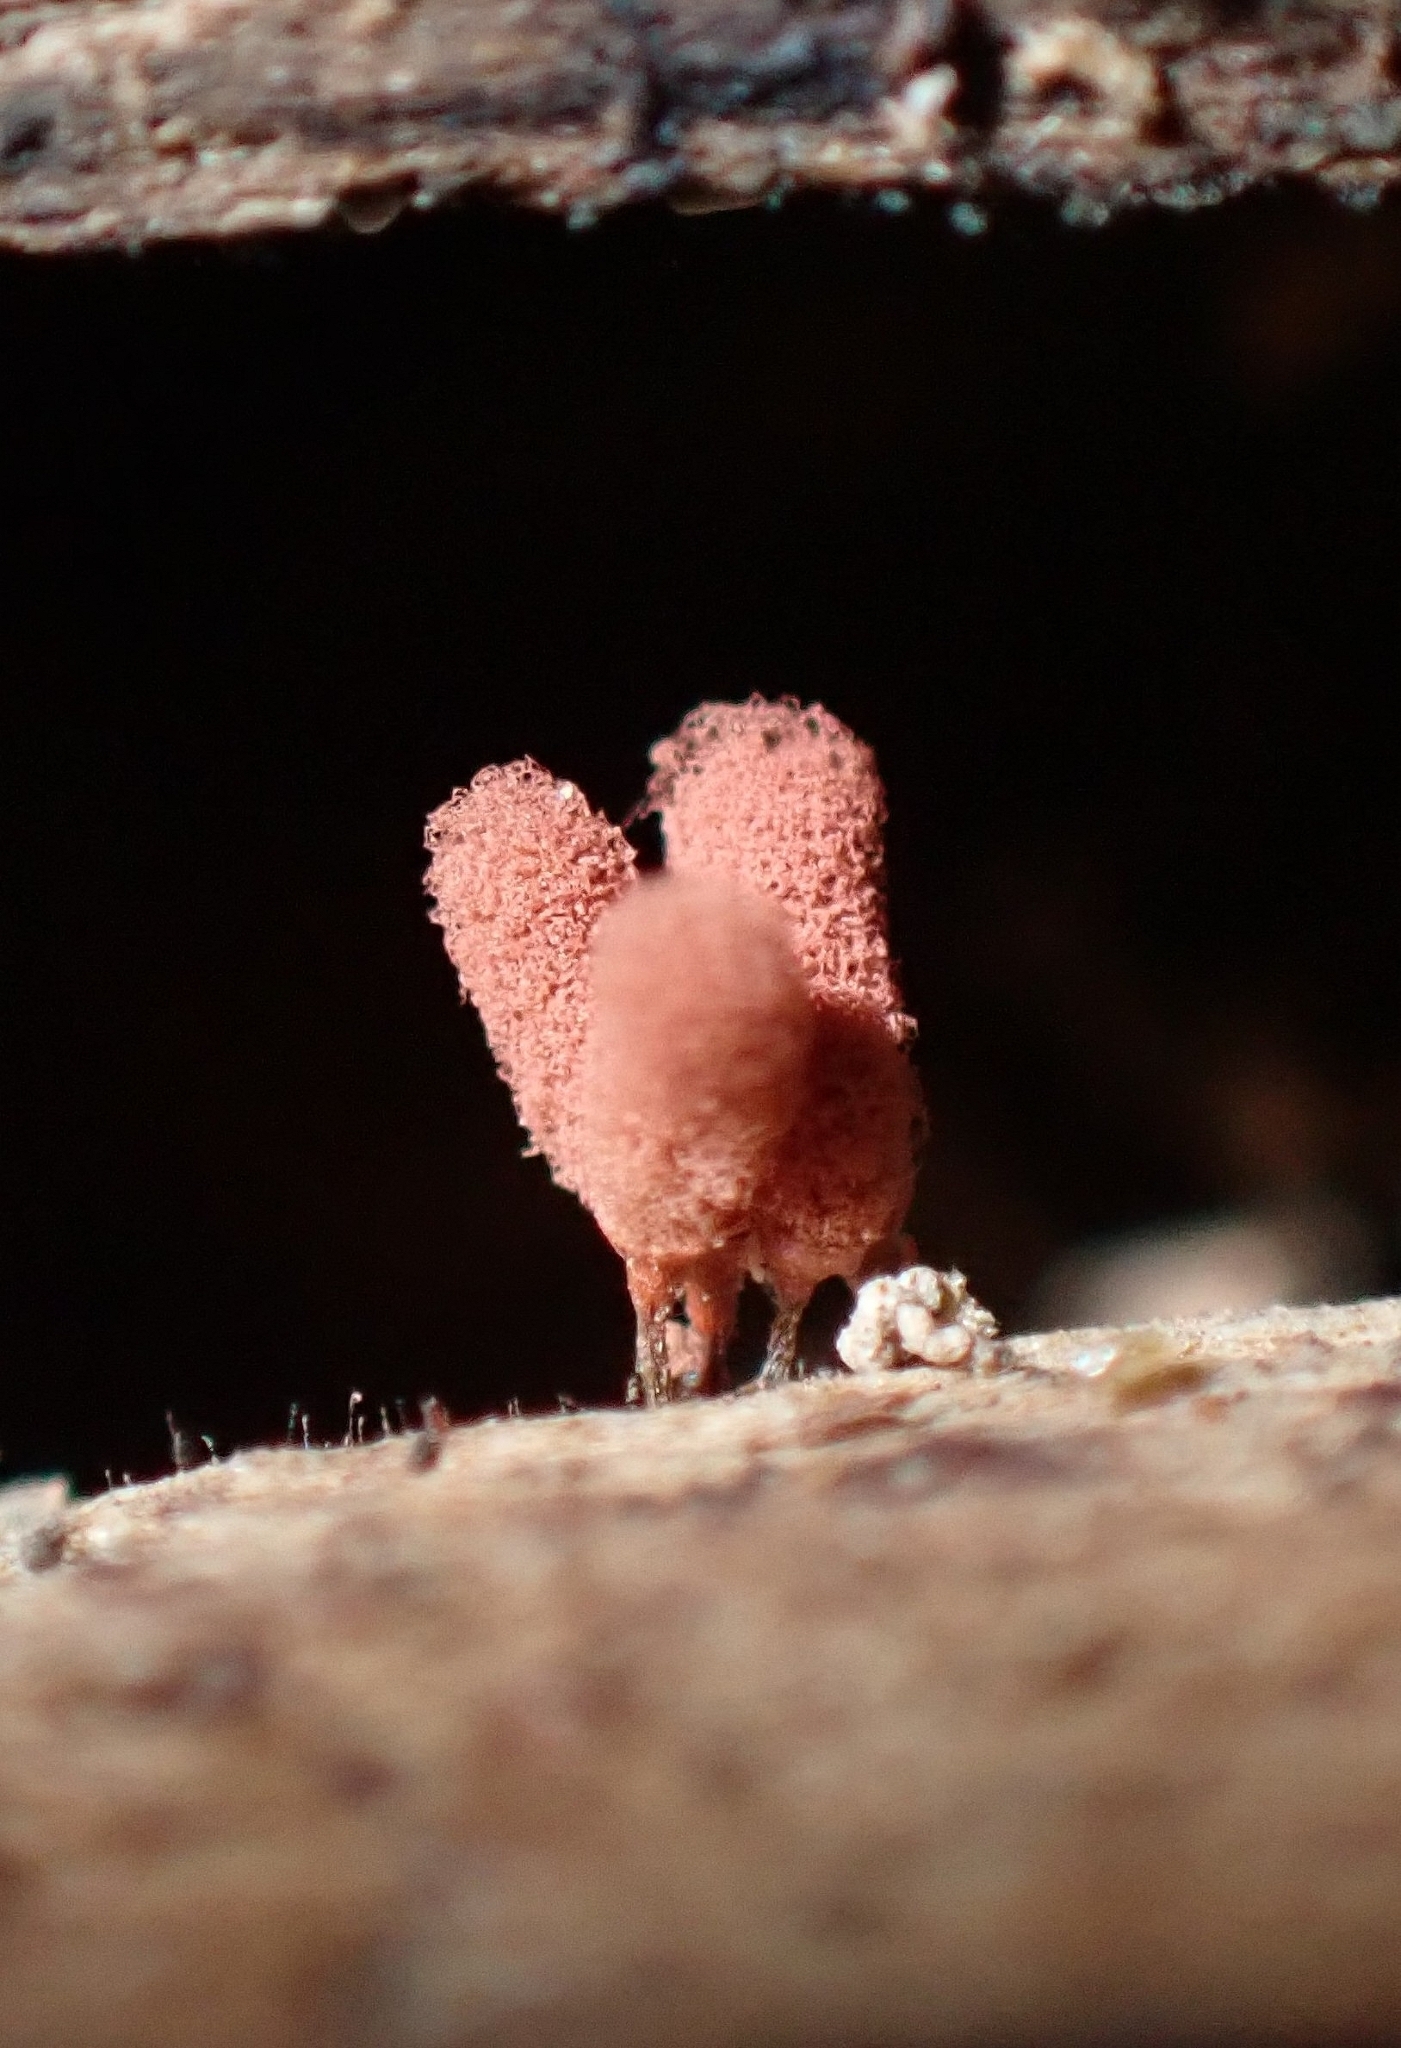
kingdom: Protozoa
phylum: Mycetozoa
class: Myxomycetes
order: Trichiales
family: Arcyriaceae
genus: Arcyria
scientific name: Arcyria denudata
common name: Carnival candy slime mold
